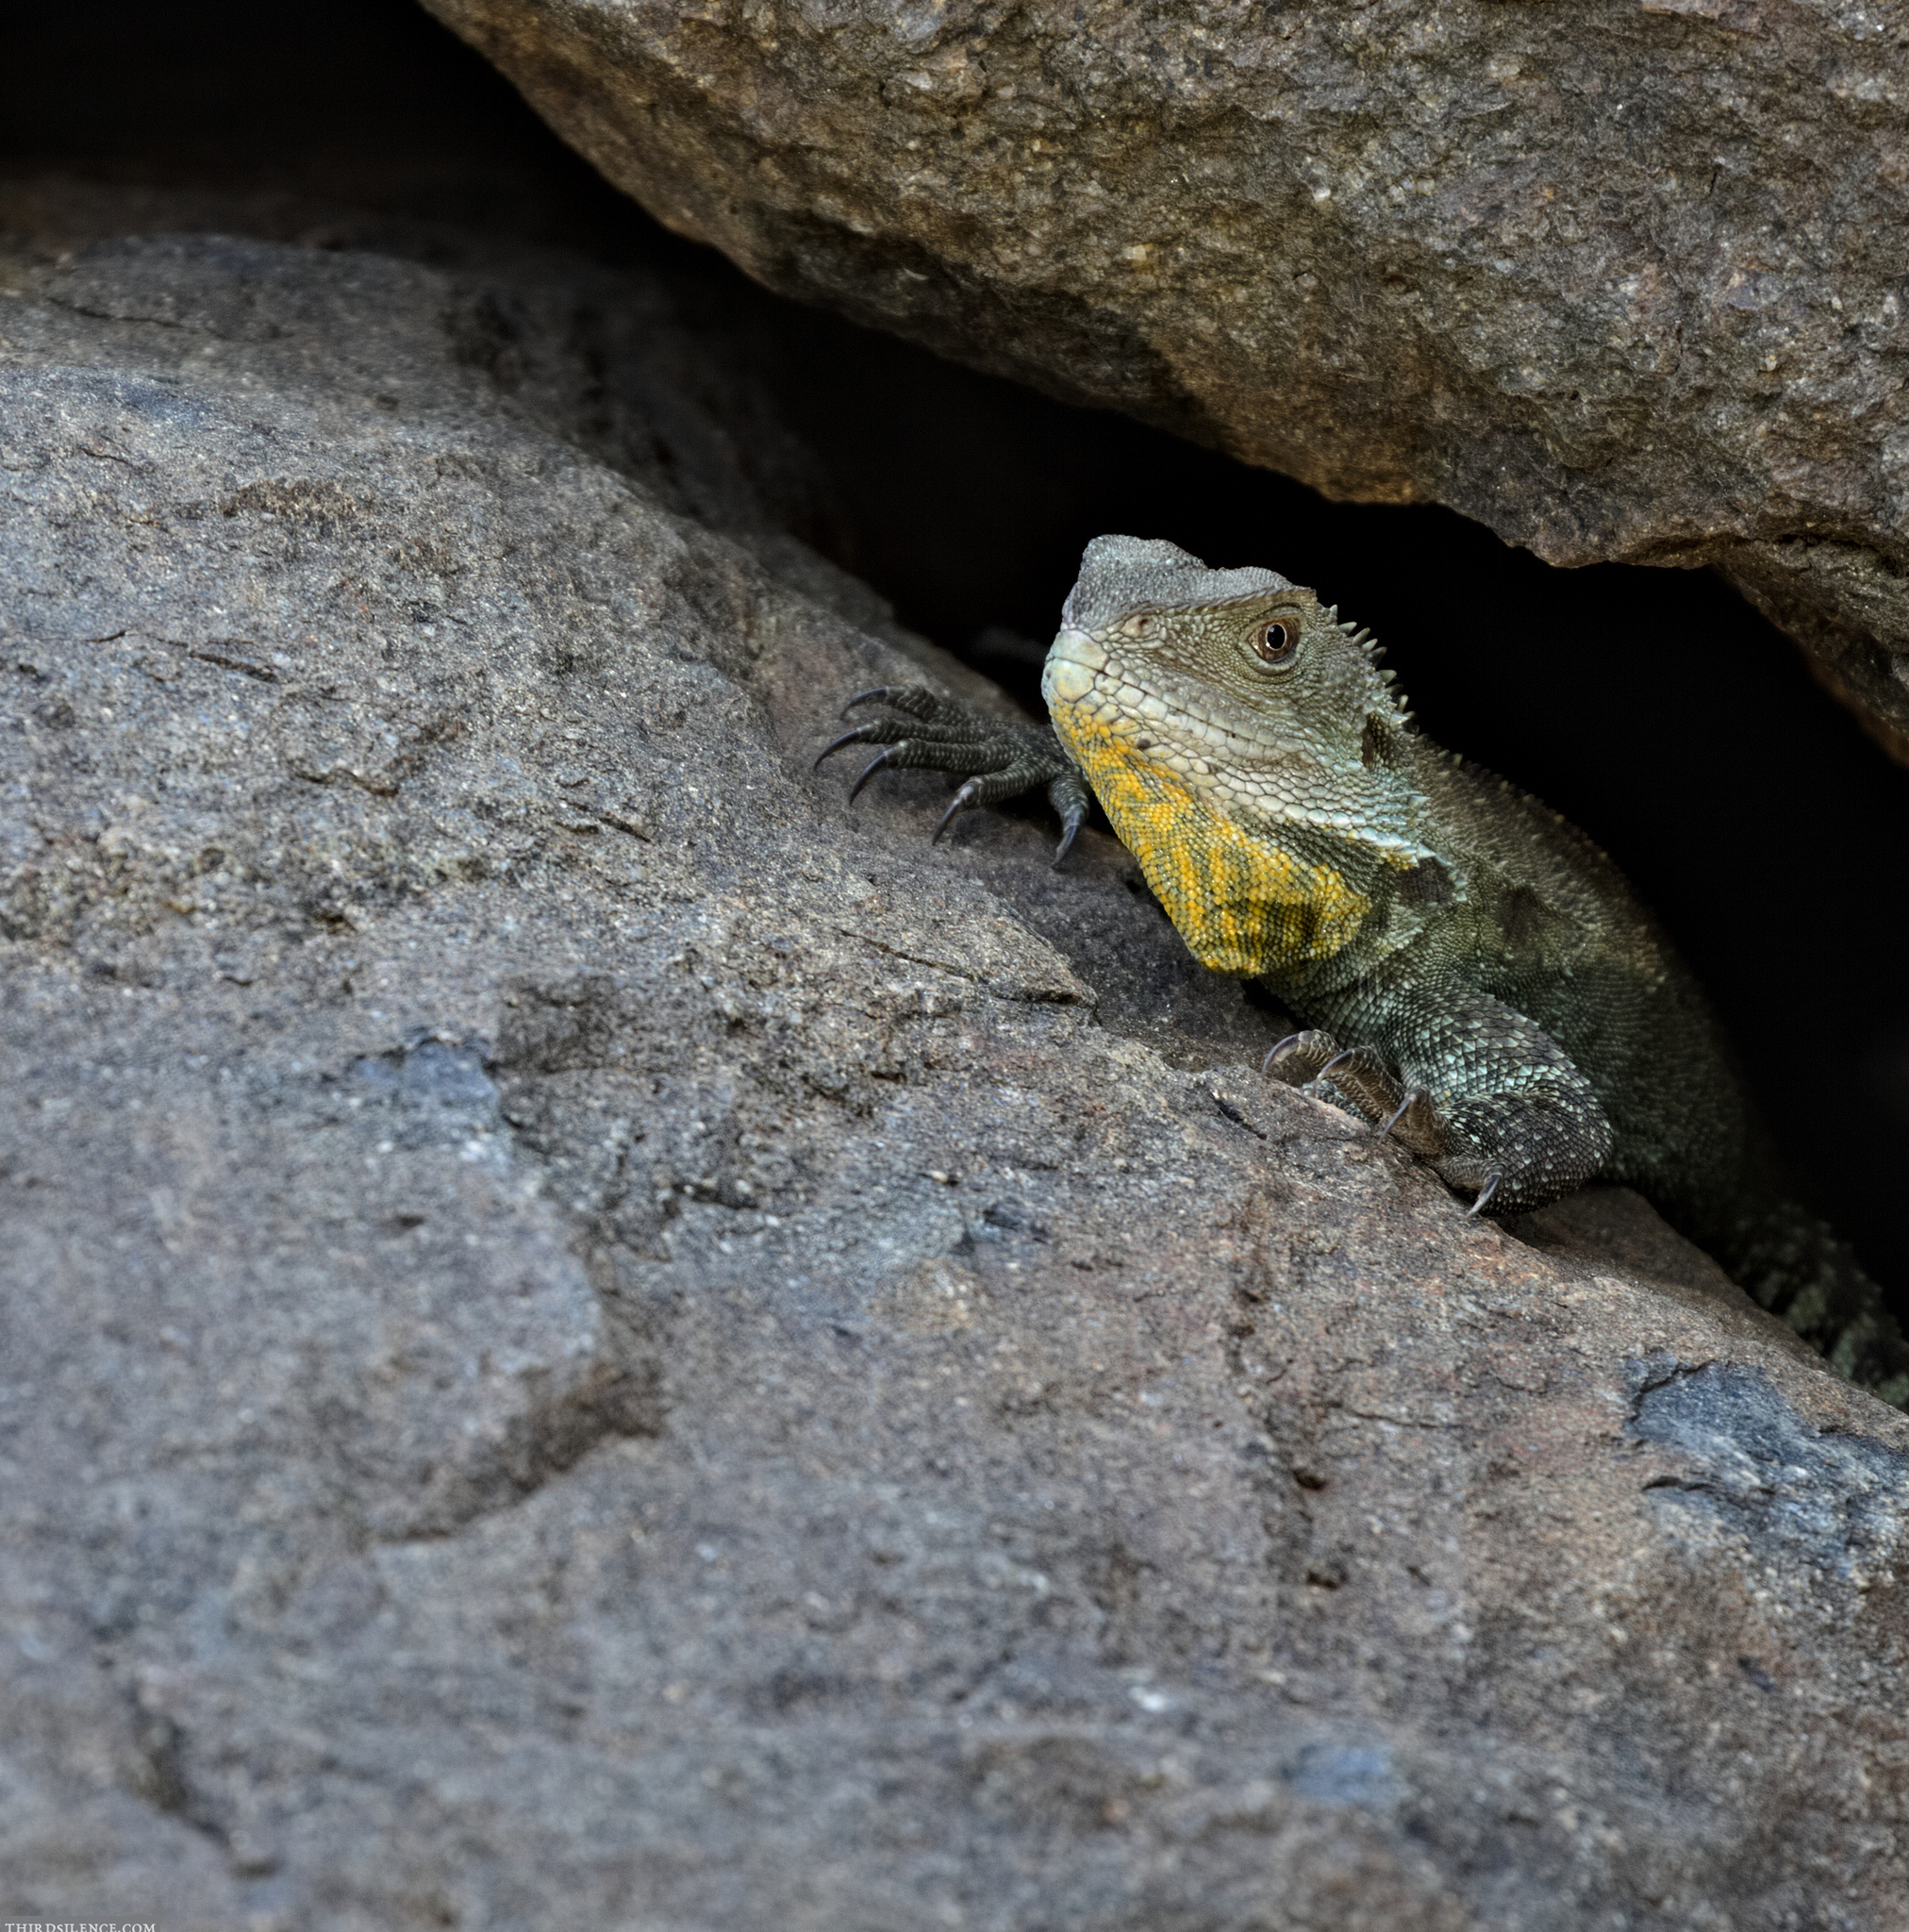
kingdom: Animalia
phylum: Chordata
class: Squamata
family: Agamidae
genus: Intellagama
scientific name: Intellagama lesueurii
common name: Eastern water dragon
